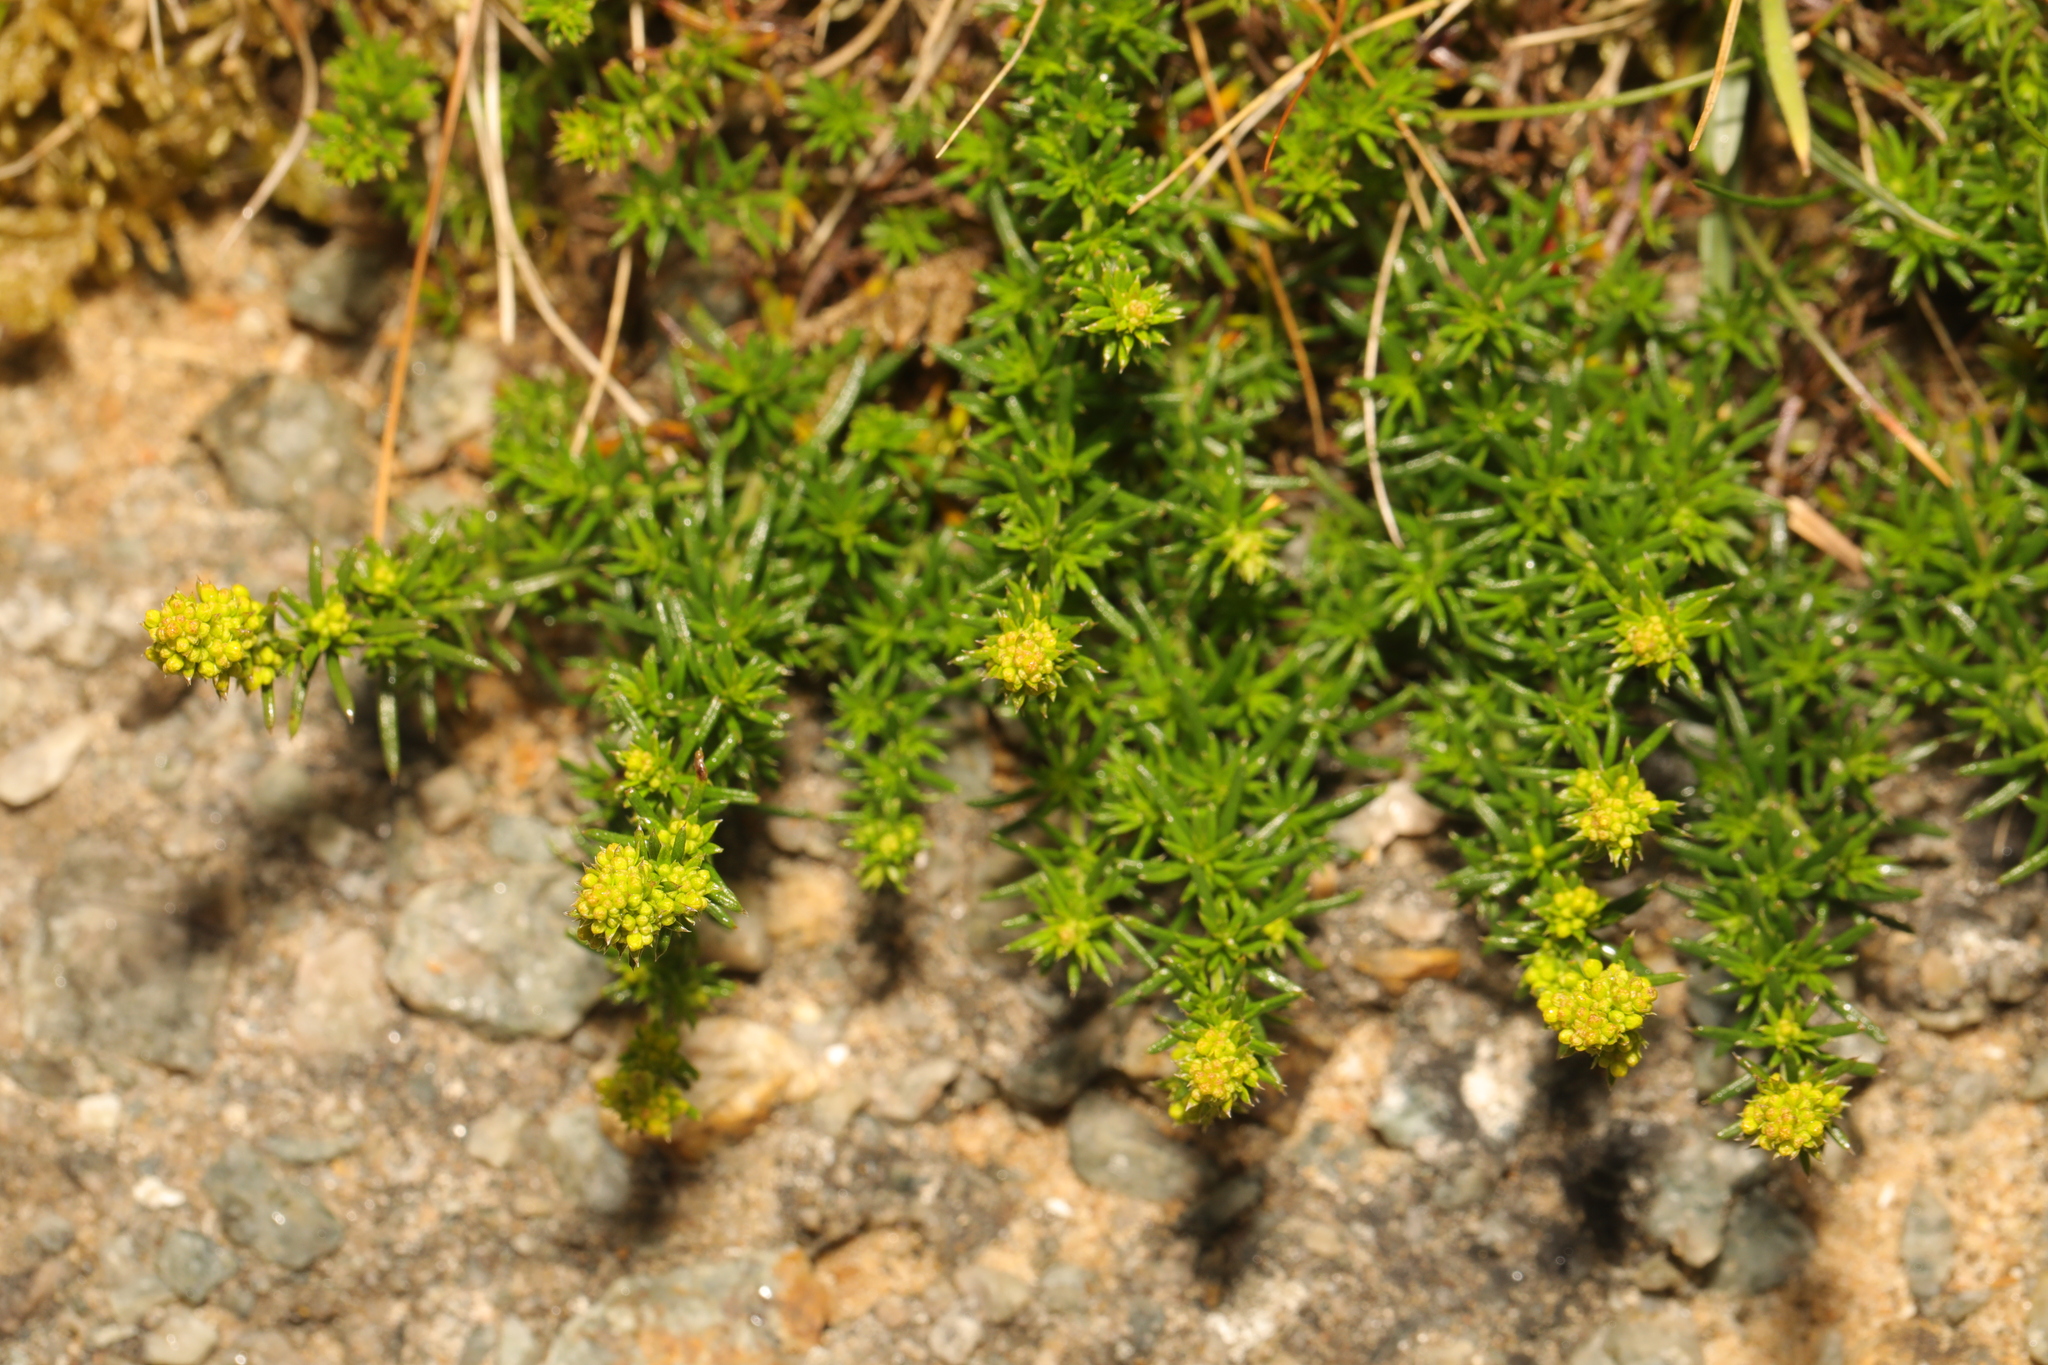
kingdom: Plantae
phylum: Tracheophyta
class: Magnoliopsida
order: Gentianales
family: Rubiaceae
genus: Galium
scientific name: Galium verum
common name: Lady's bedstraw
